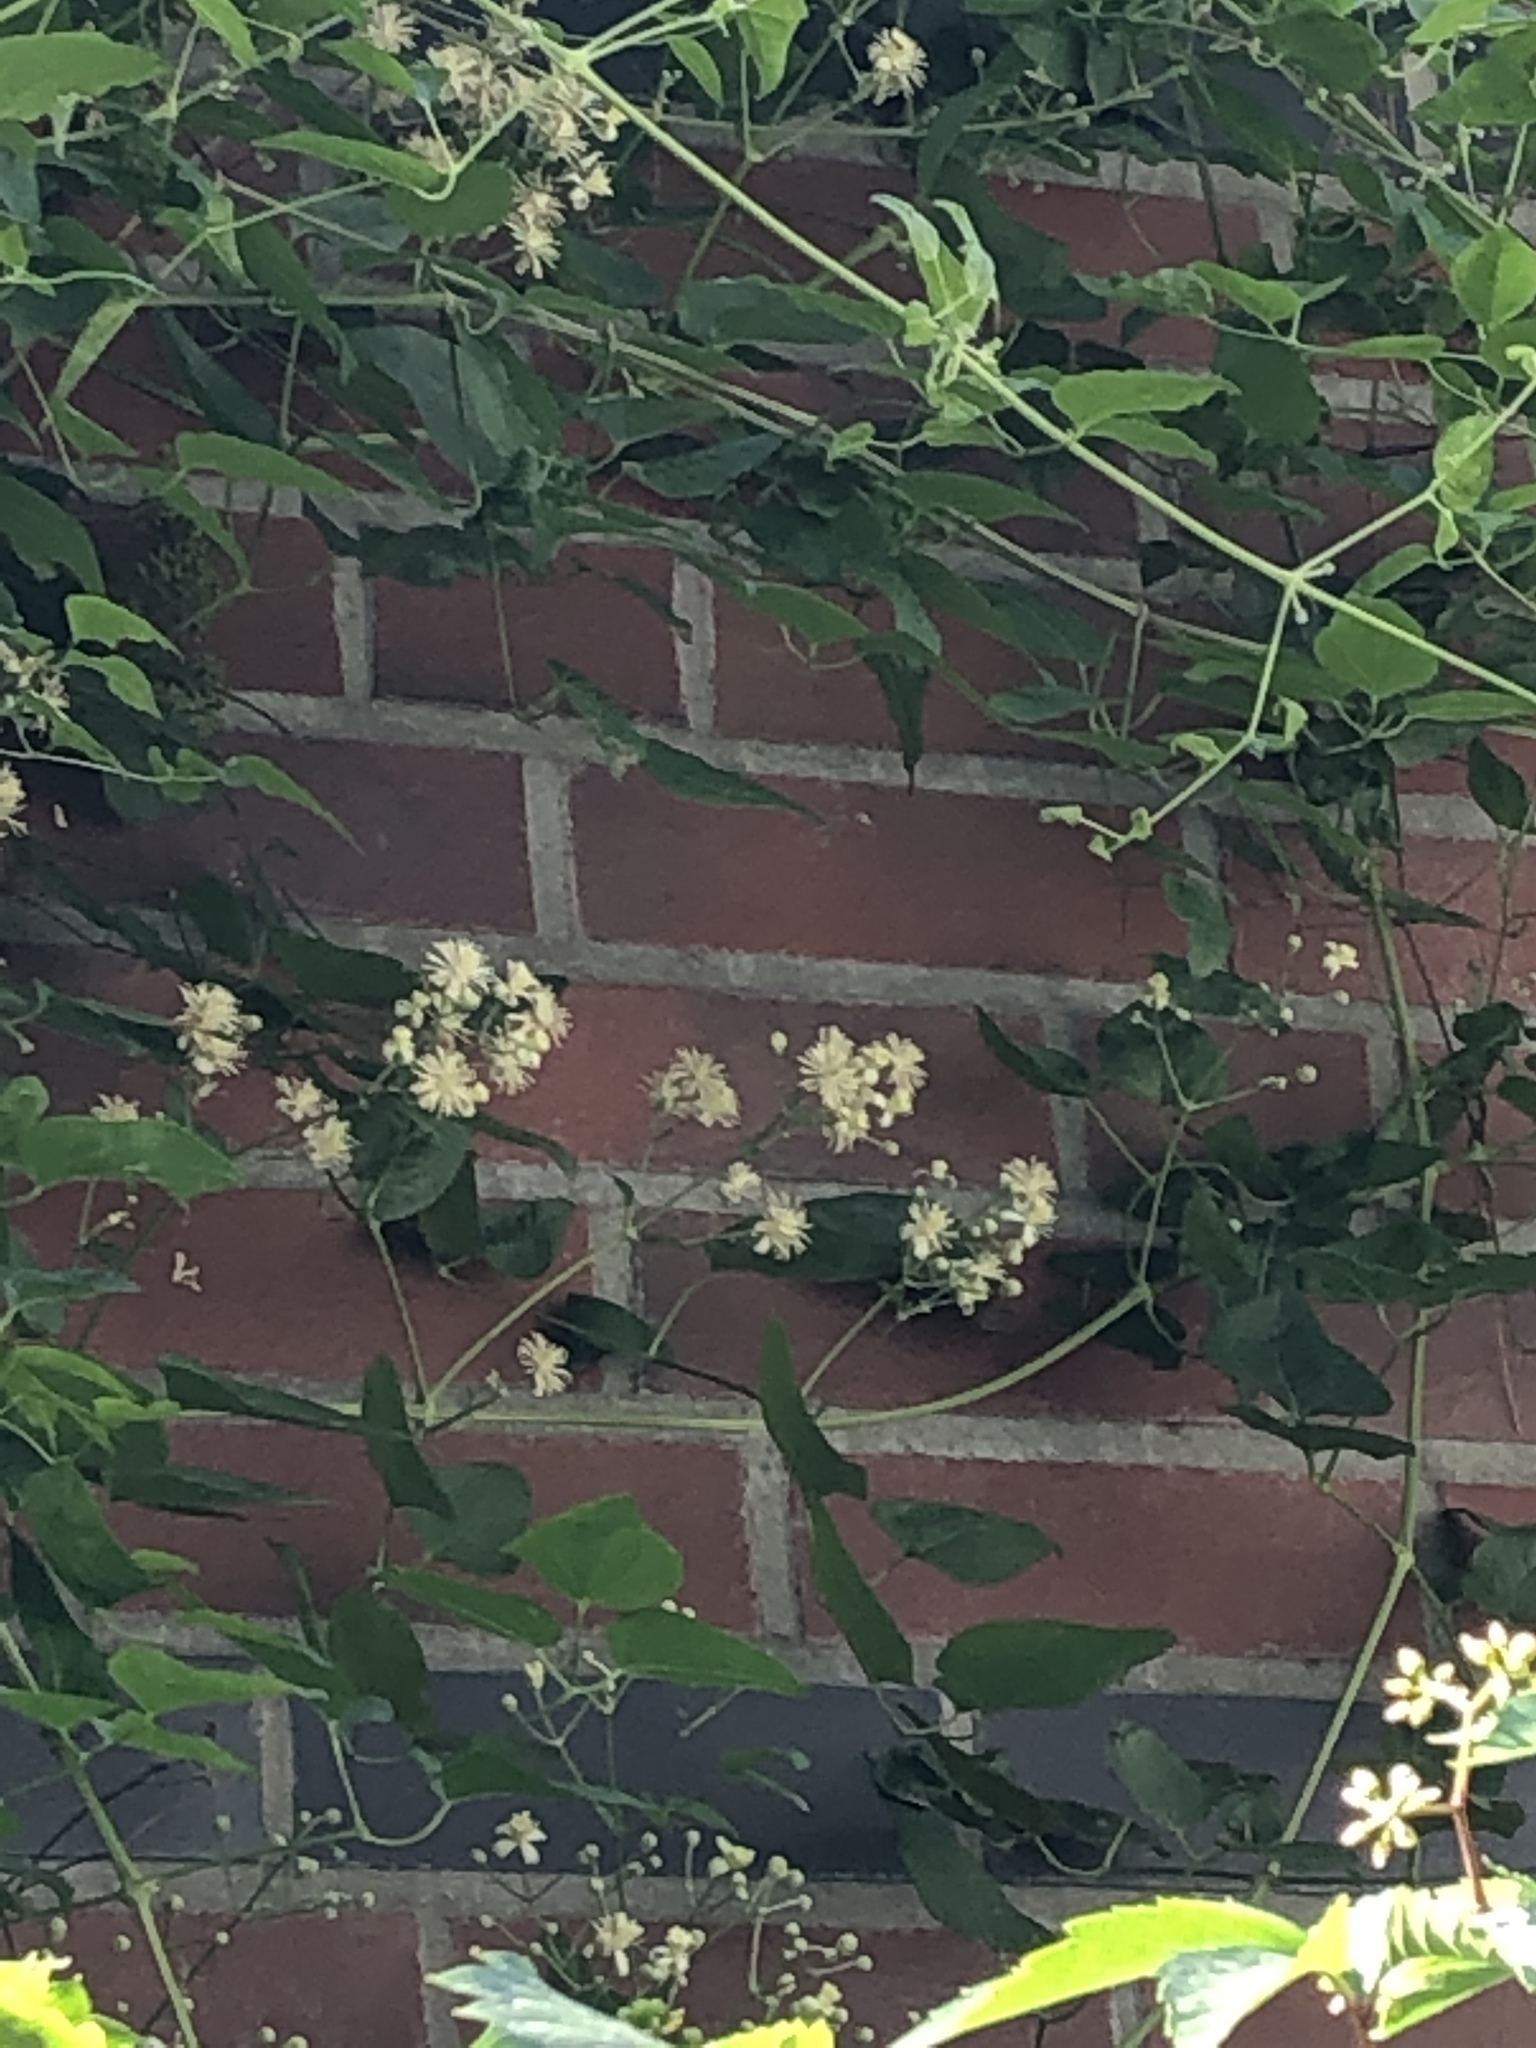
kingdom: Plantae
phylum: Tracheophyta
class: Magnoliopsida
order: Ranunculales
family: Ranunculaceae
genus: Clematis
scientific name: Clematis vitalba
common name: Evergreen clematis
